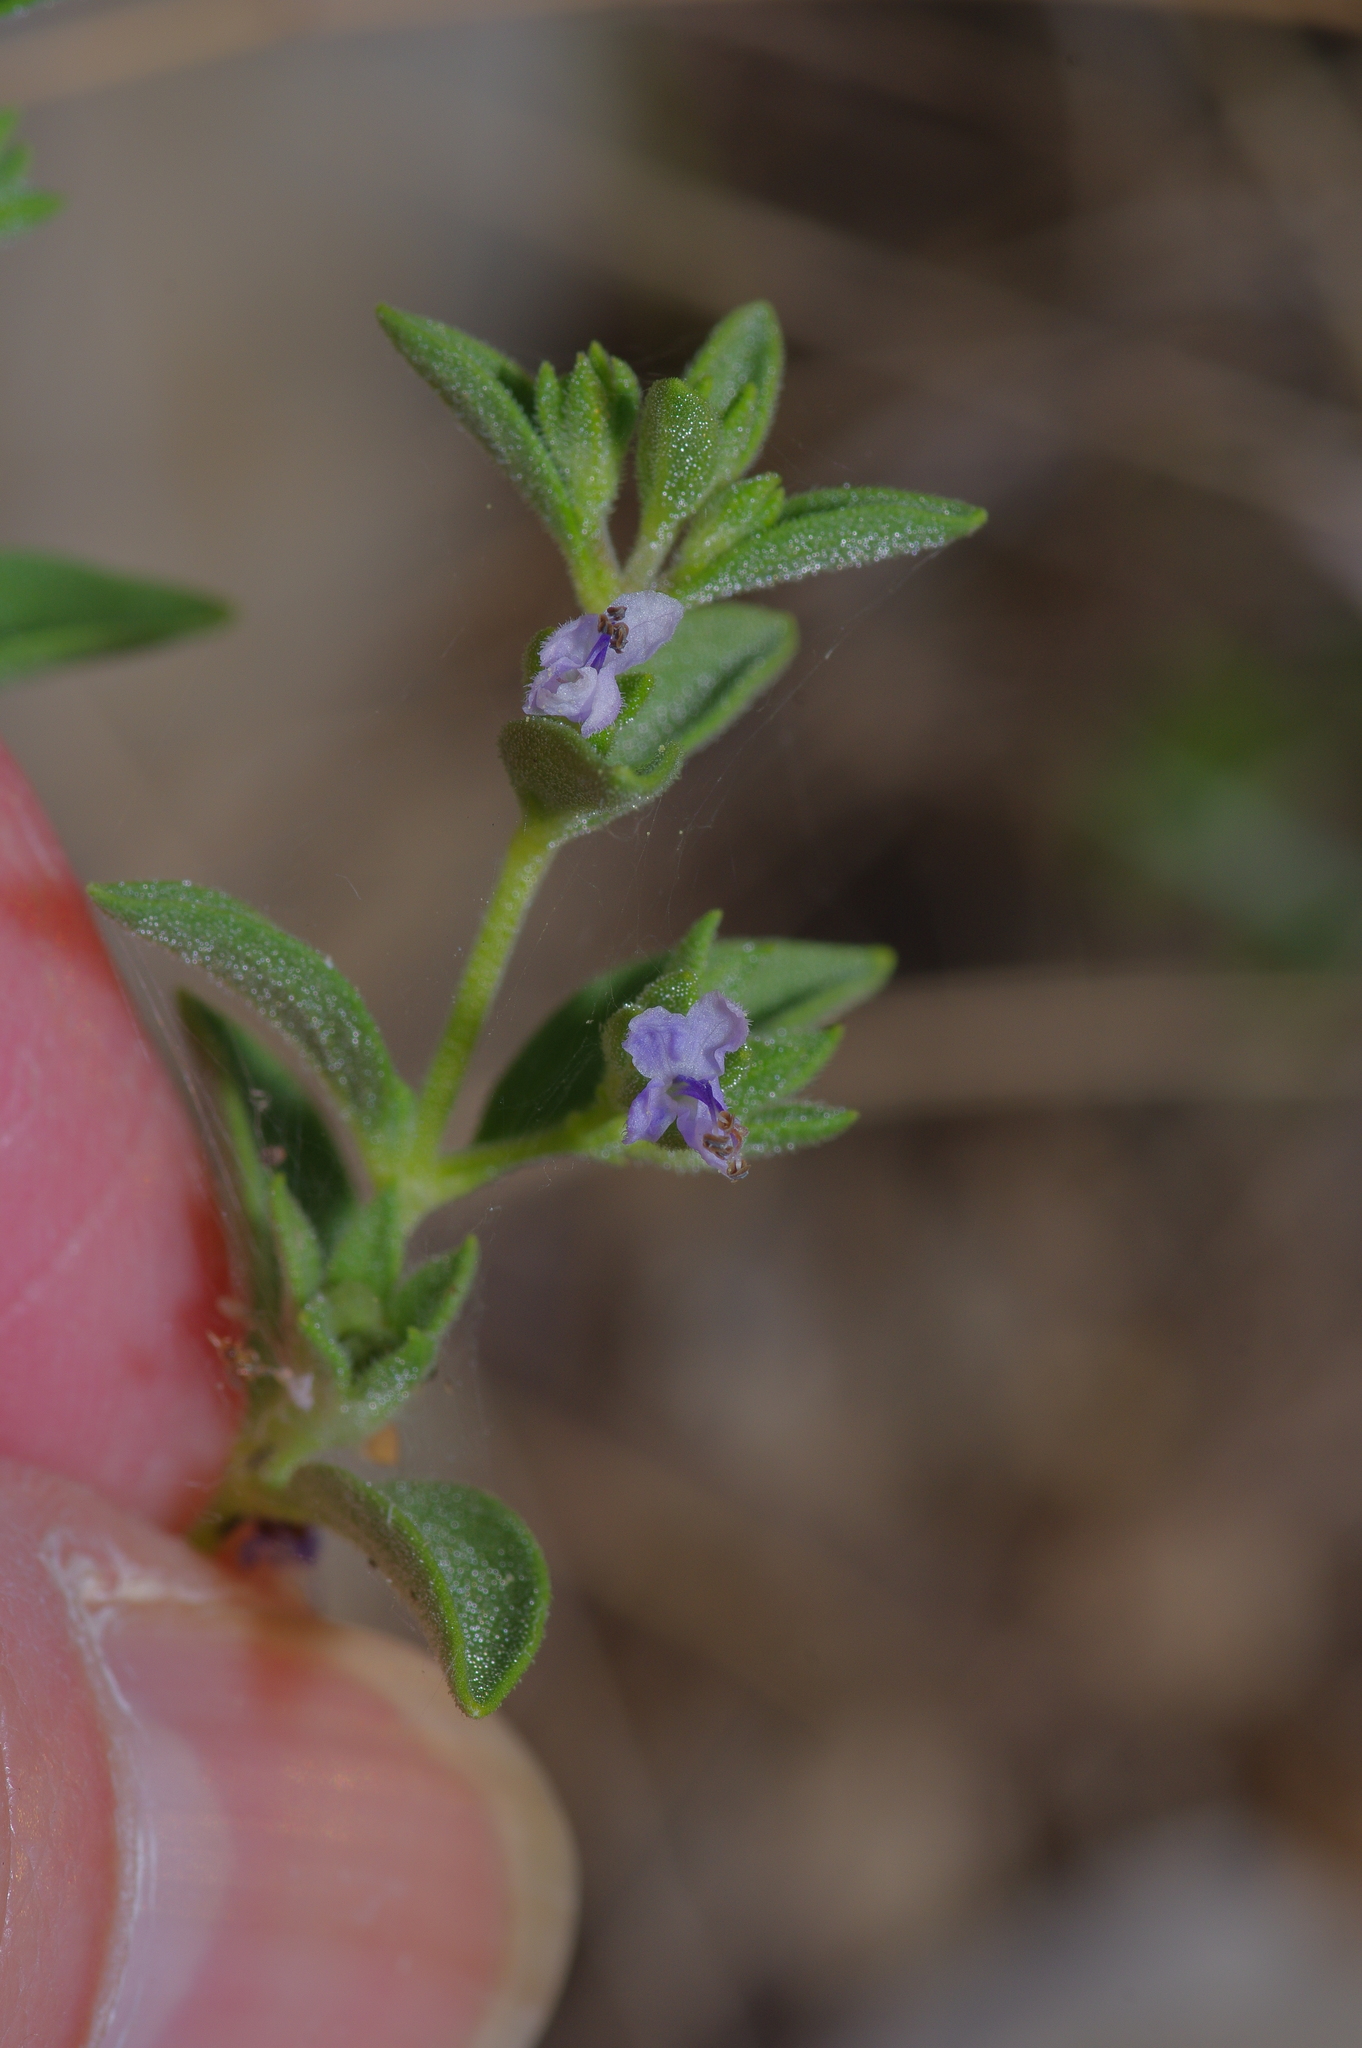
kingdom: Plantae
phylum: Tracheophyta
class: Magnoliopsida
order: Lamiales
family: Lamiaceae
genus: Trichostema
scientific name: Trichostema brachiatum
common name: False pennyroyal
